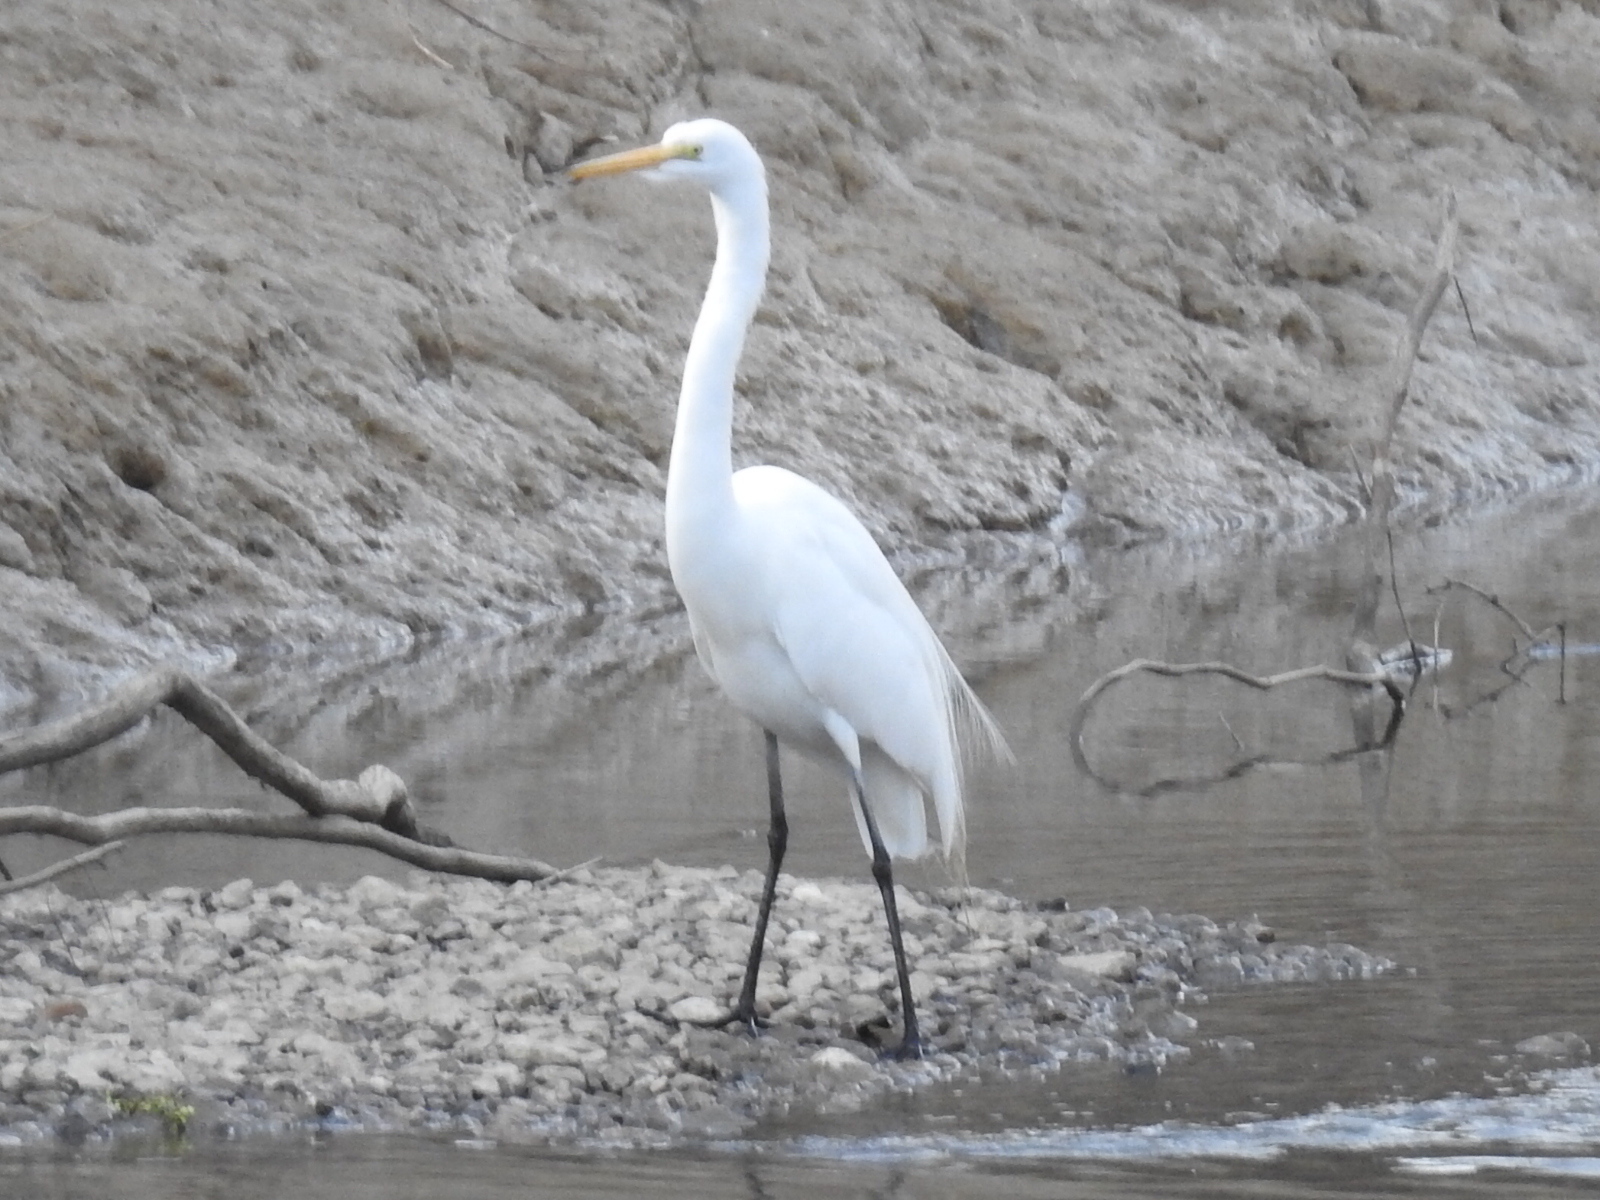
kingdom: Animalia
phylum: Chordata
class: Aves
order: Pelecaniformes
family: Ardeidae
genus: Ardea
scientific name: Ardea alba
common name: Great egret
